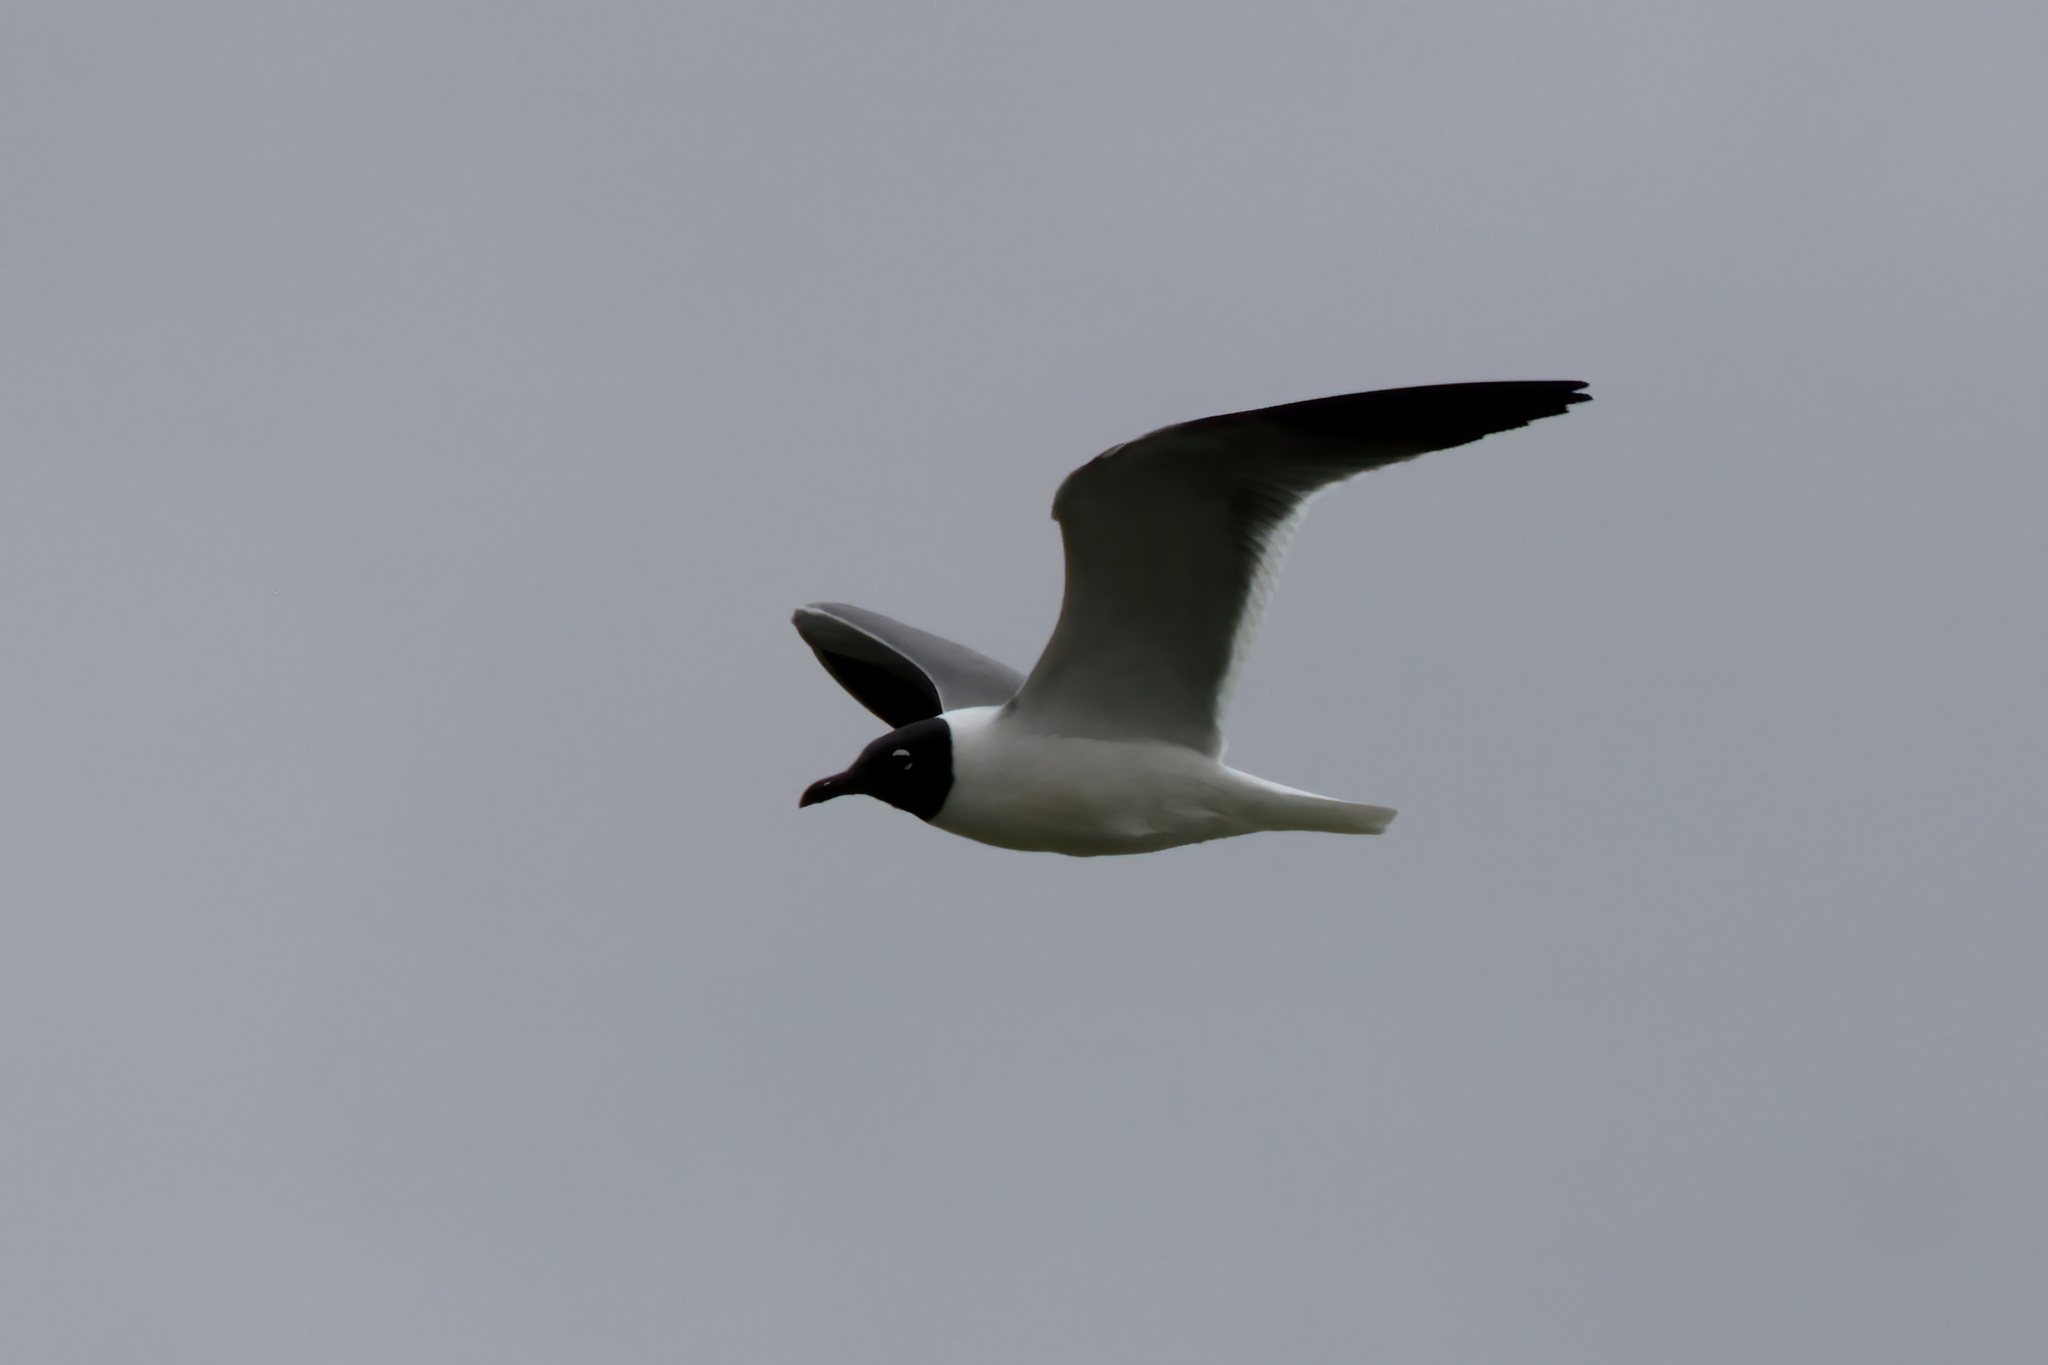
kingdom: Animalia
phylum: Chordata
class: Aves
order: Charadriiformes
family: Laridae
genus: Leucophaeus
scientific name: Leucophaeus atricilla
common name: Laughing gull
